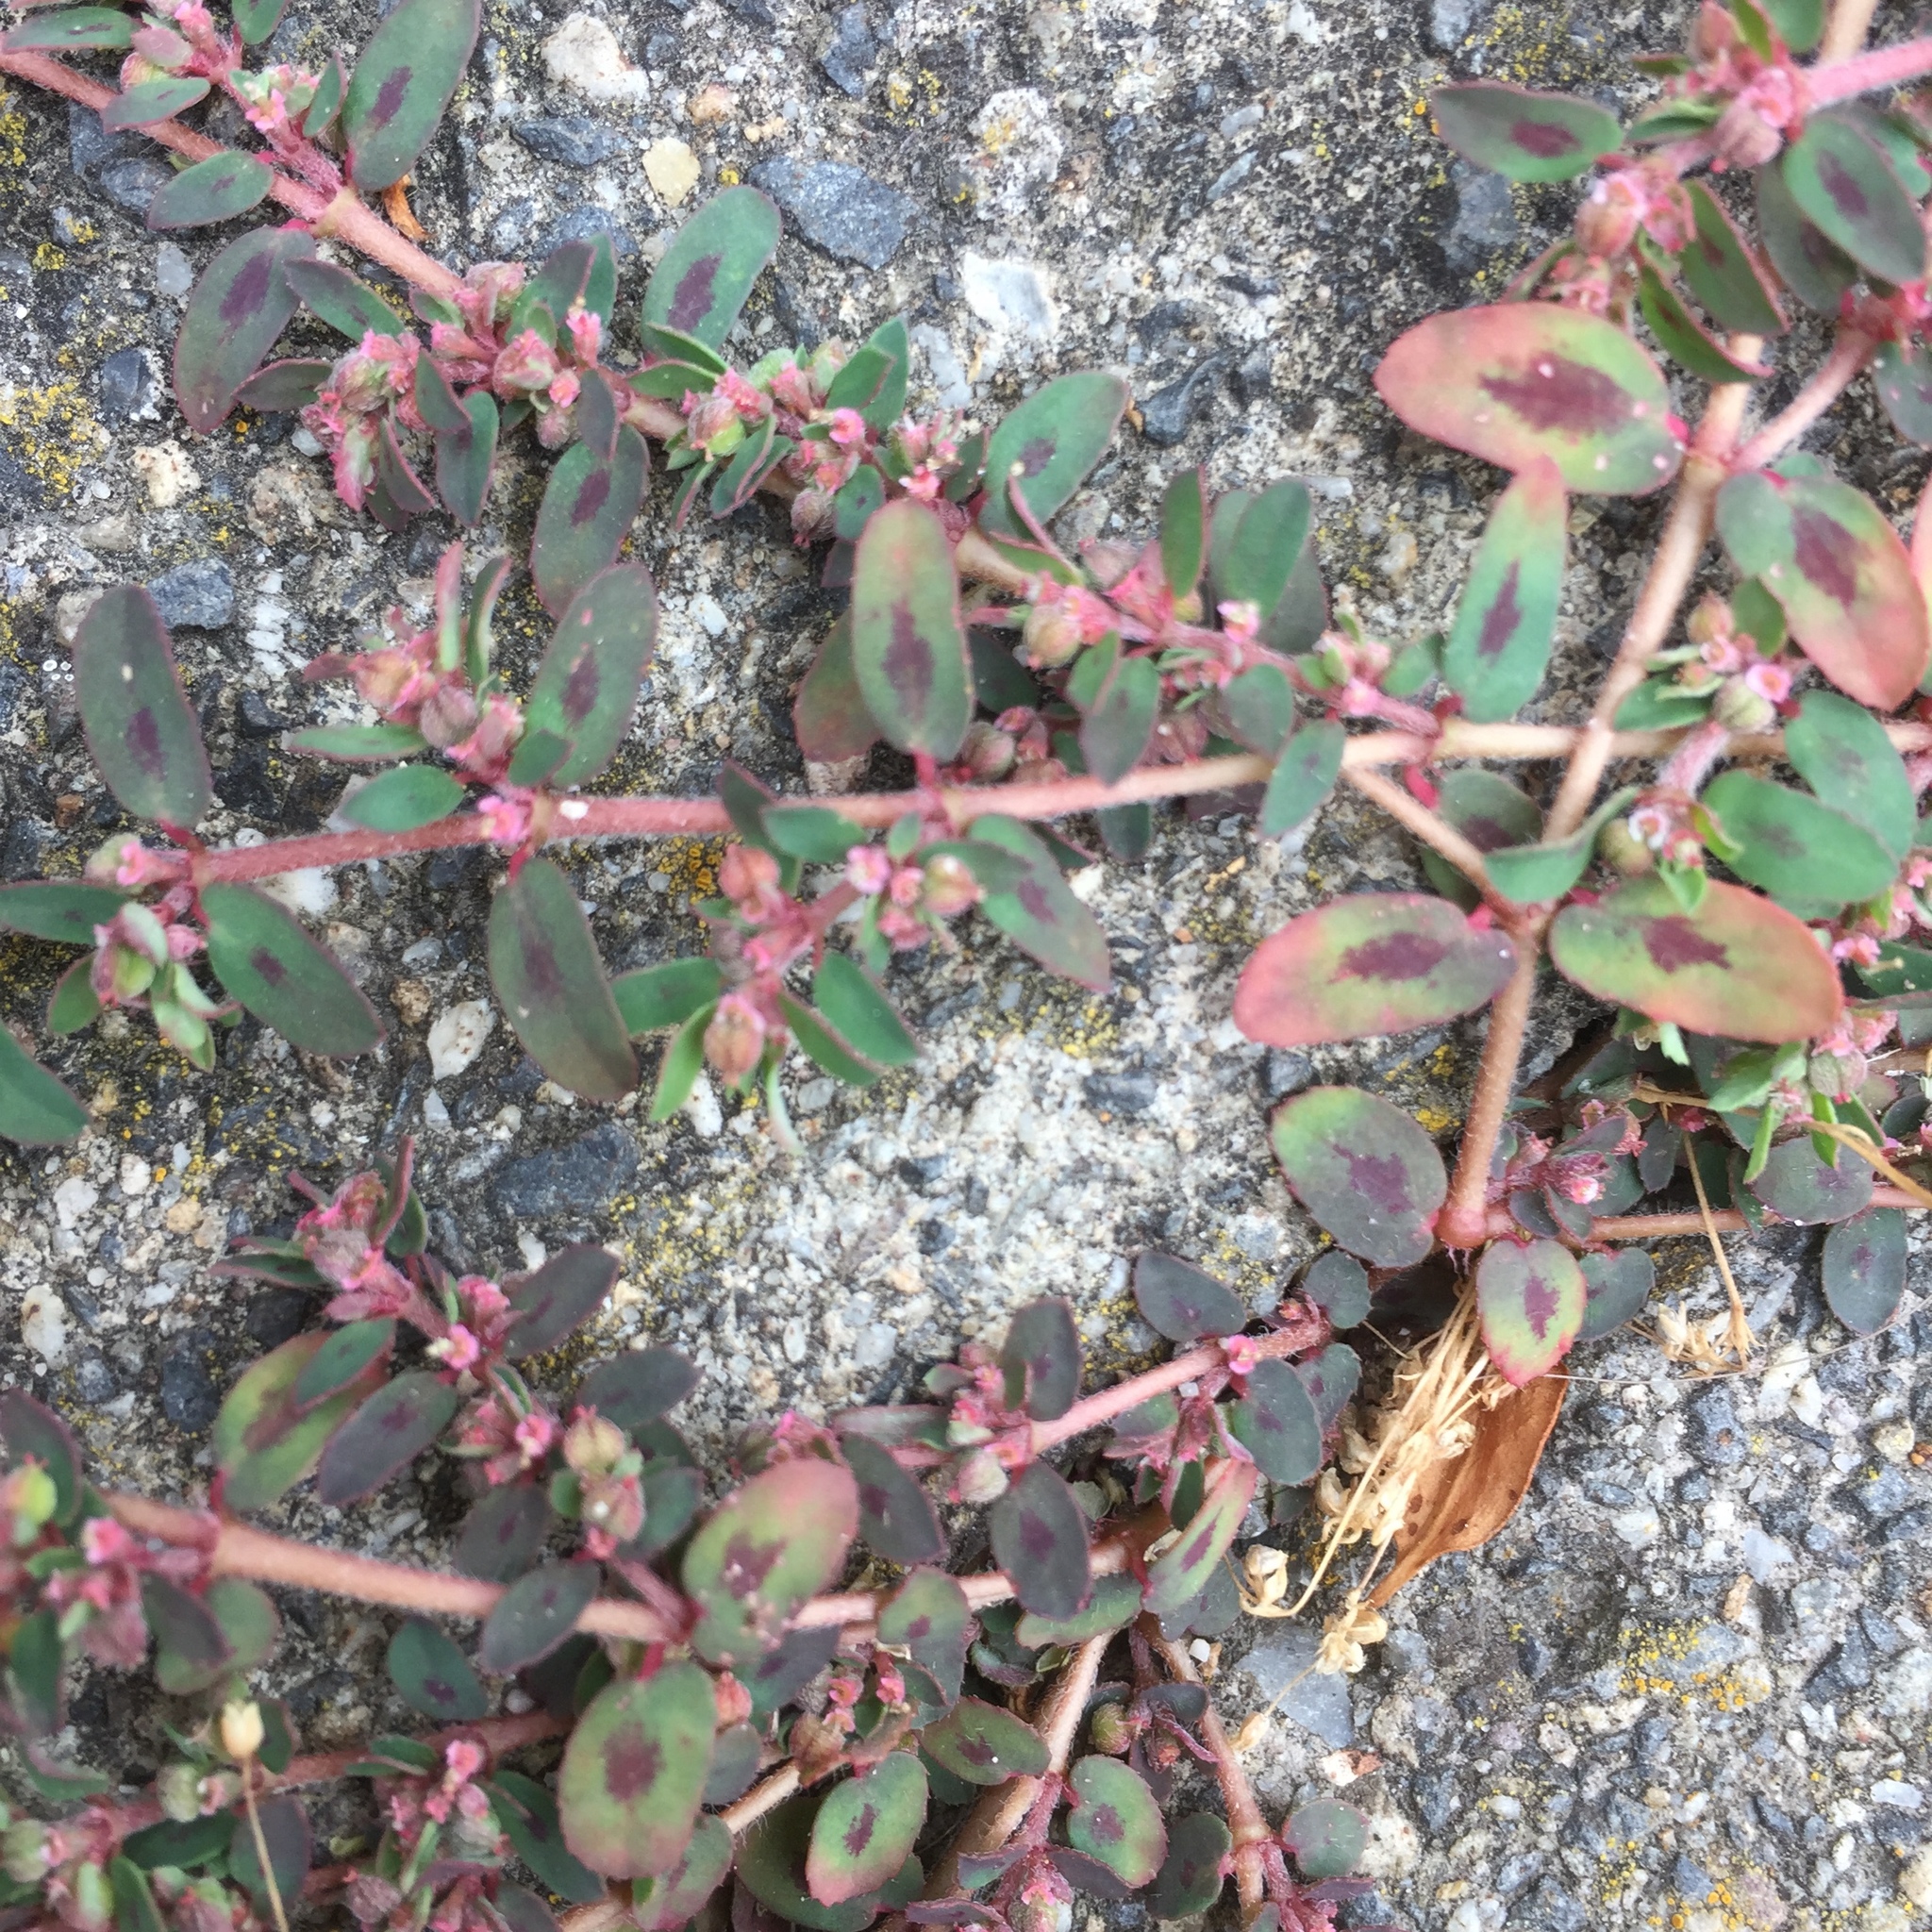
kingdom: Plantae
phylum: Tracheophyta
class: Magnoliopsida
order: Malpighiales
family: Euphorbiaceae
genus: Euphorbia
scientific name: Euphorbia maculata
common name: Spotted spurge
